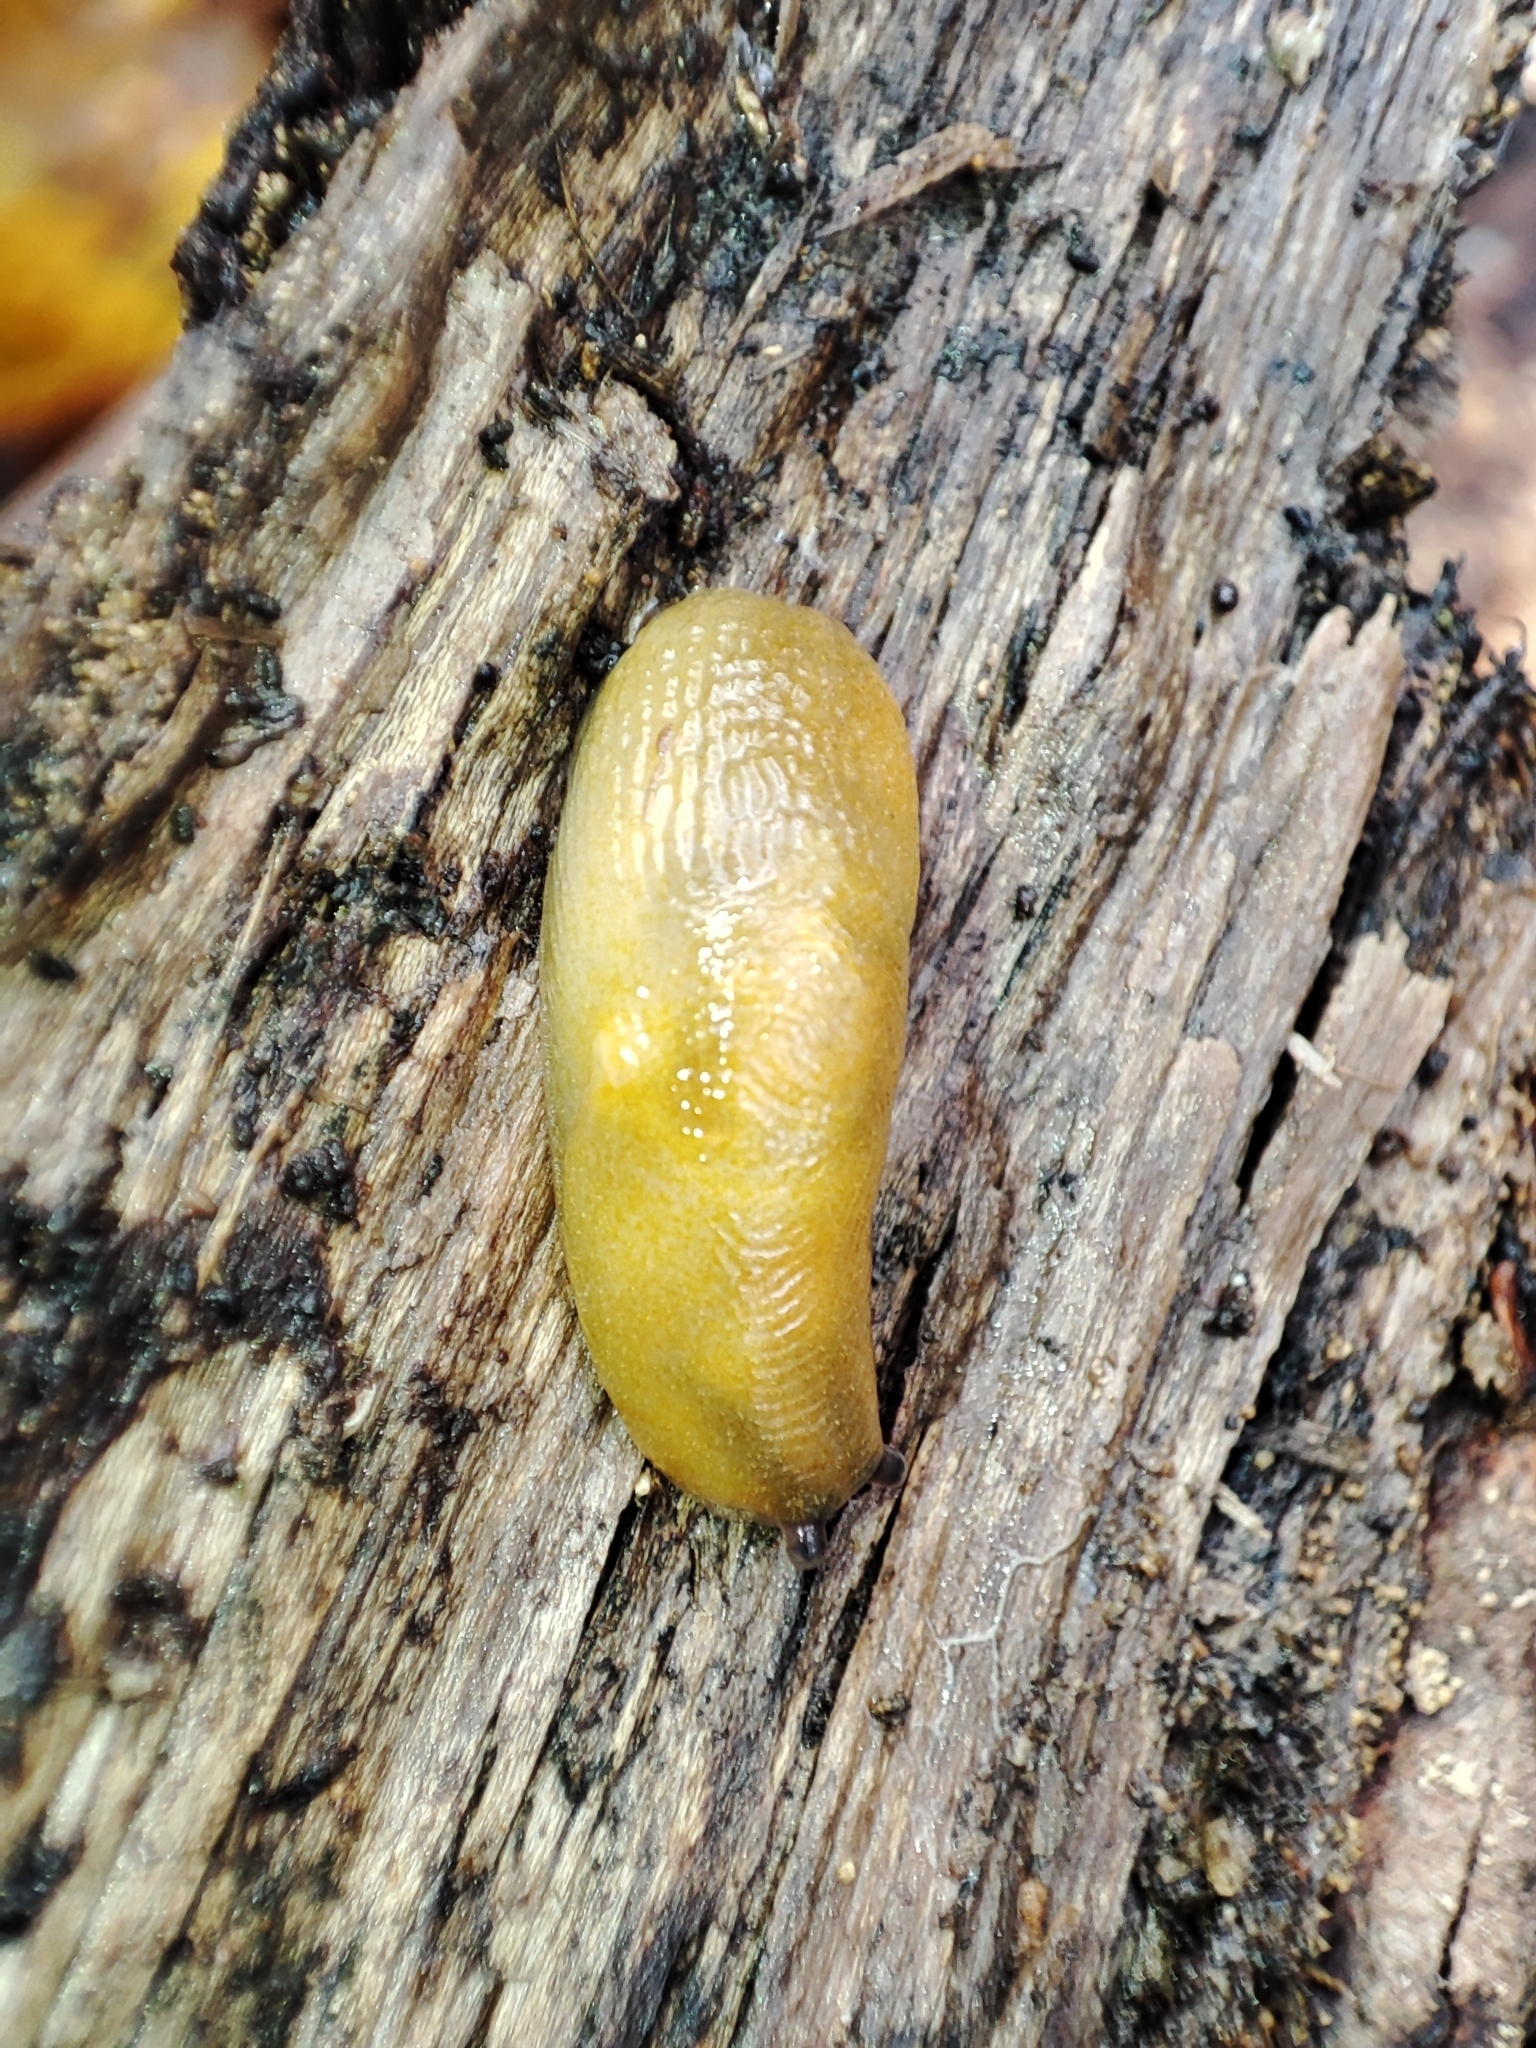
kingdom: Animalia
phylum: Mollusca
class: Gastropoda
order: Stylommatophora
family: Limacidae
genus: Malacolimax
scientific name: Malacolimax tenellus
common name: Lemon slug
